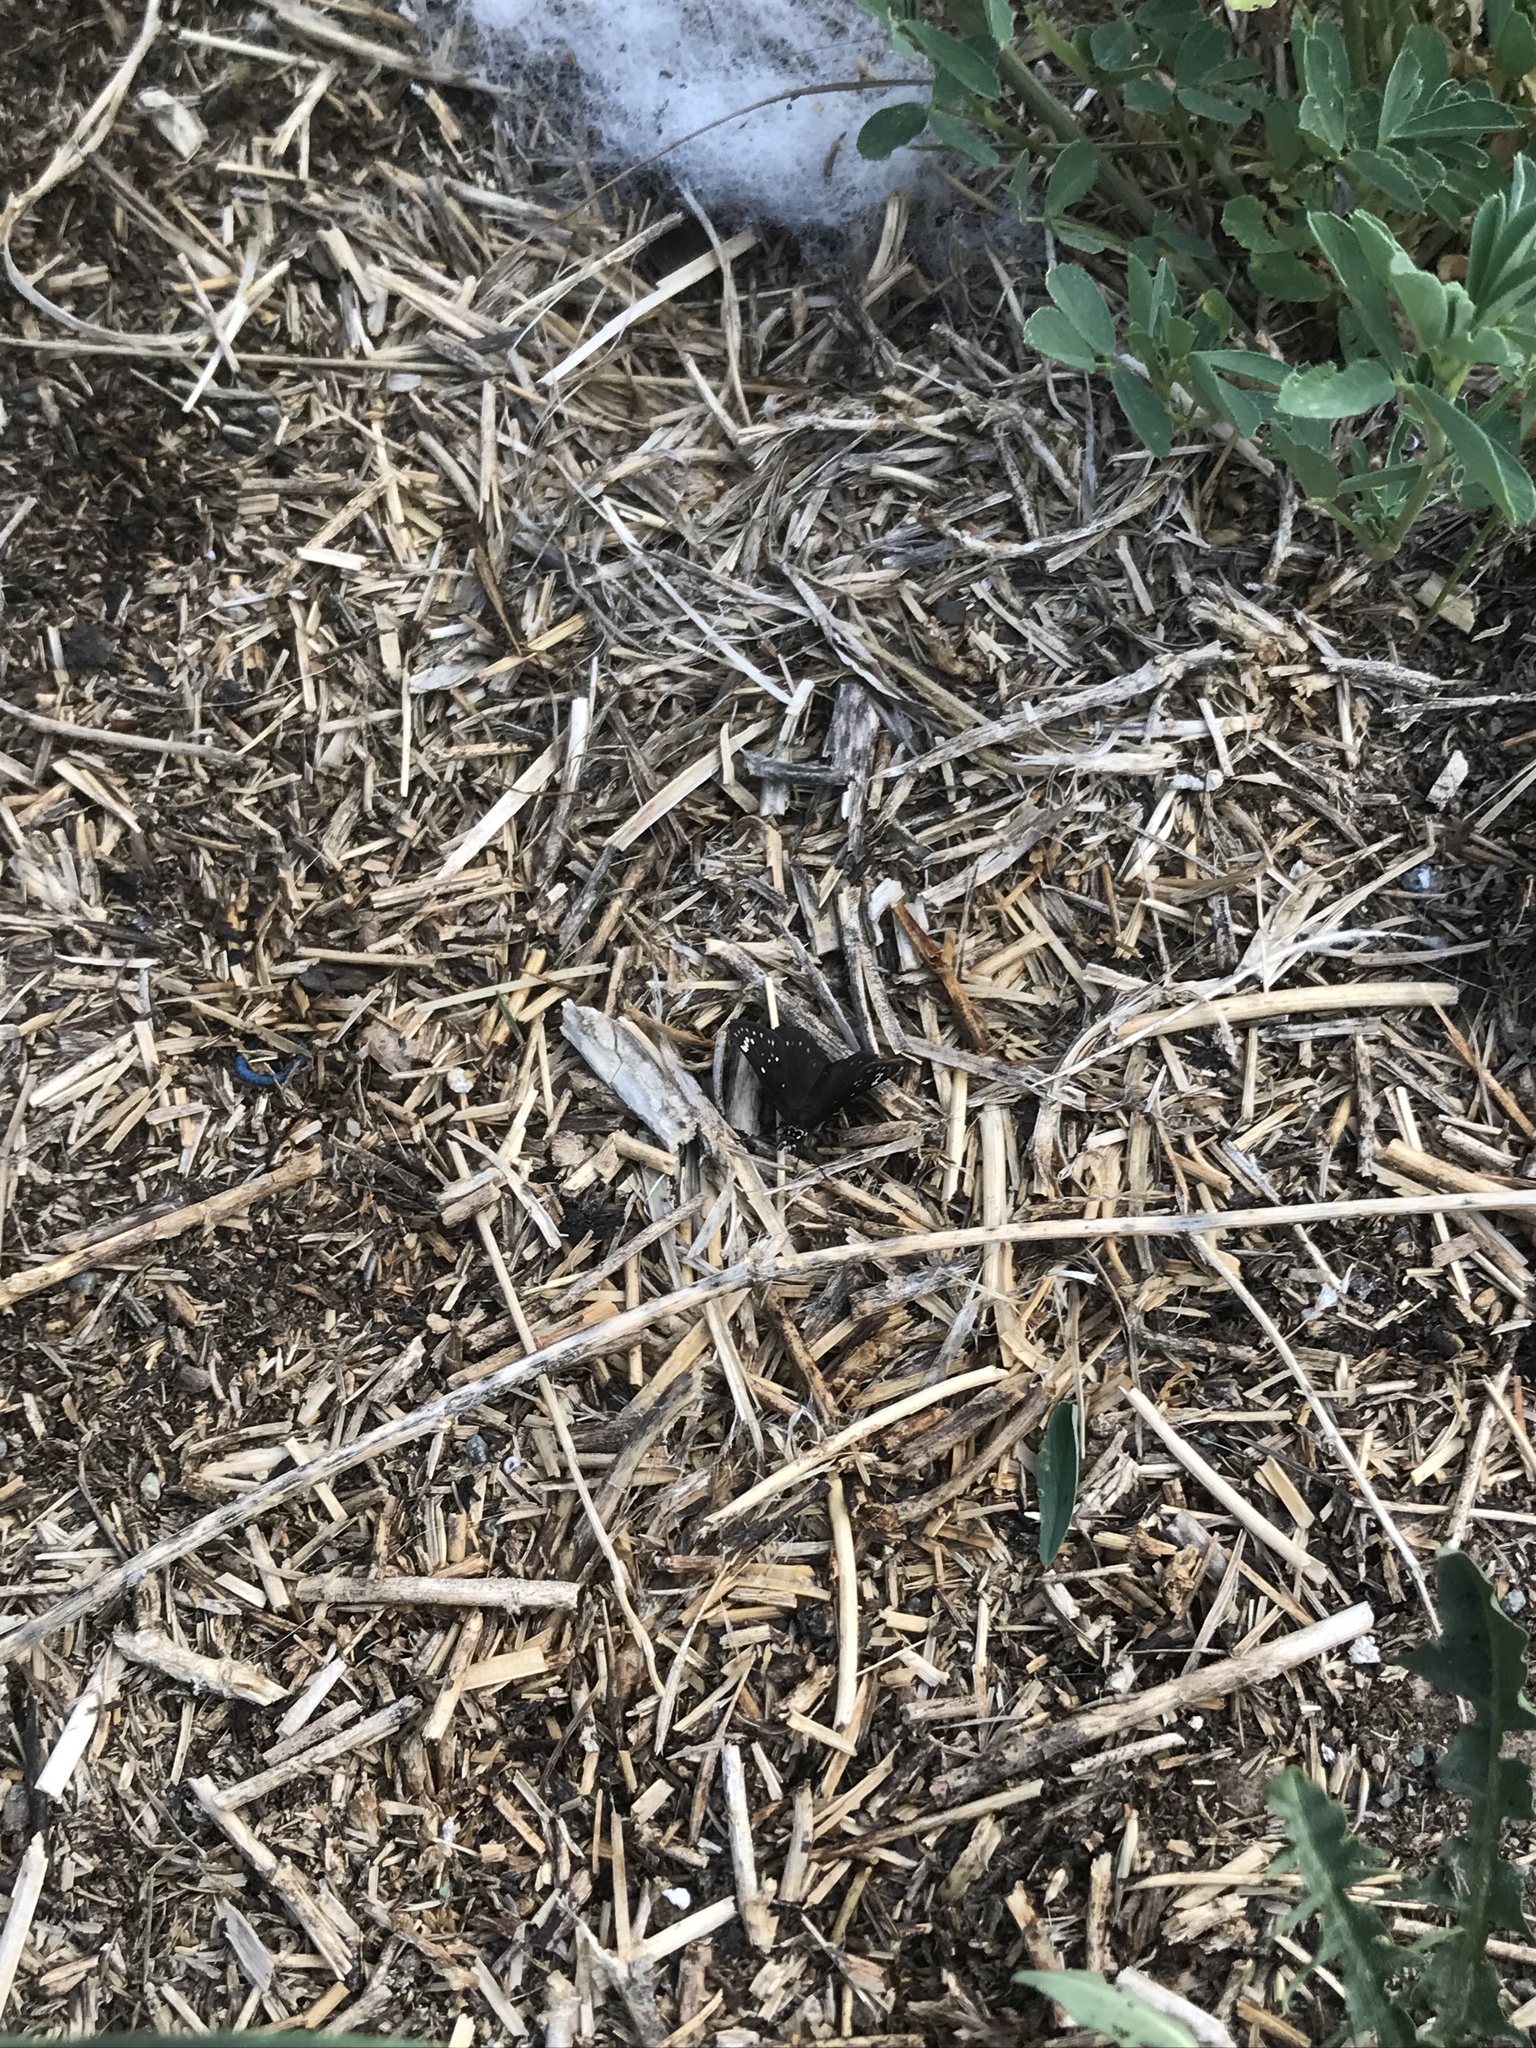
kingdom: Animalia
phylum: Arthropoda
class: Insecta
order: Lepidoptera
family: Hesperiidae
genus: Pholisora
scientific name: Pholisora catullus
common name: Common sootywing
